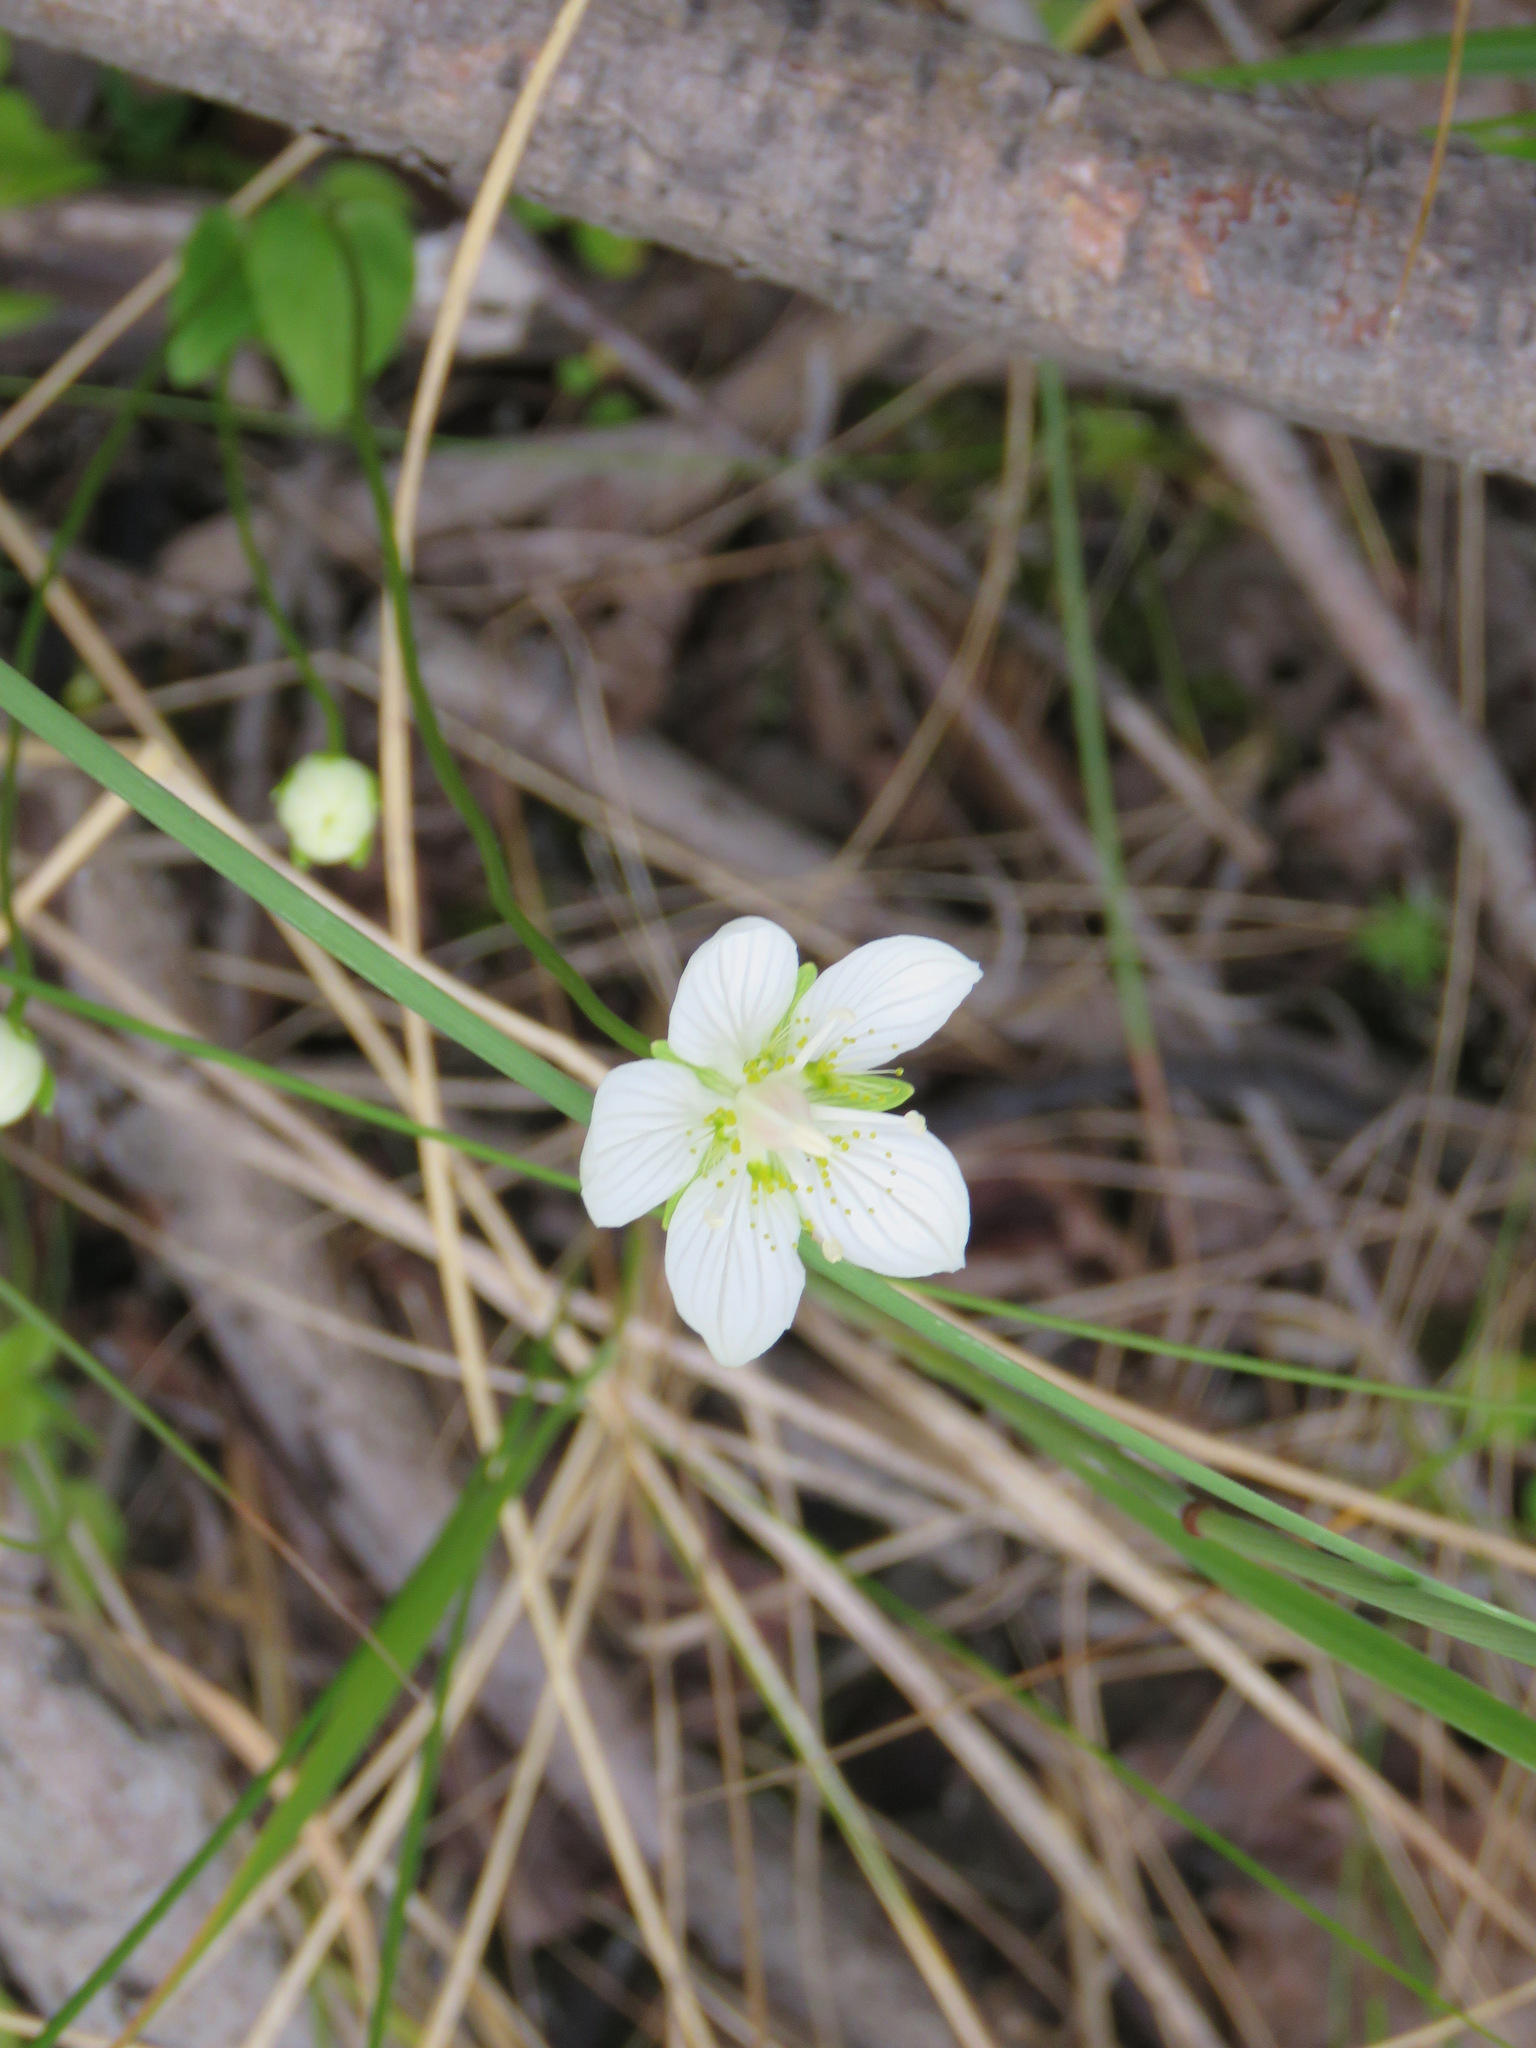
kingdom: Plantae
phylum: Tracheophyta
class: Magnoliopsida
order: Celastrales
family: Parnassiaceae
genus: Parnassia
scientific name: Parnassia palustris
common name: Grass-of-parnassus
